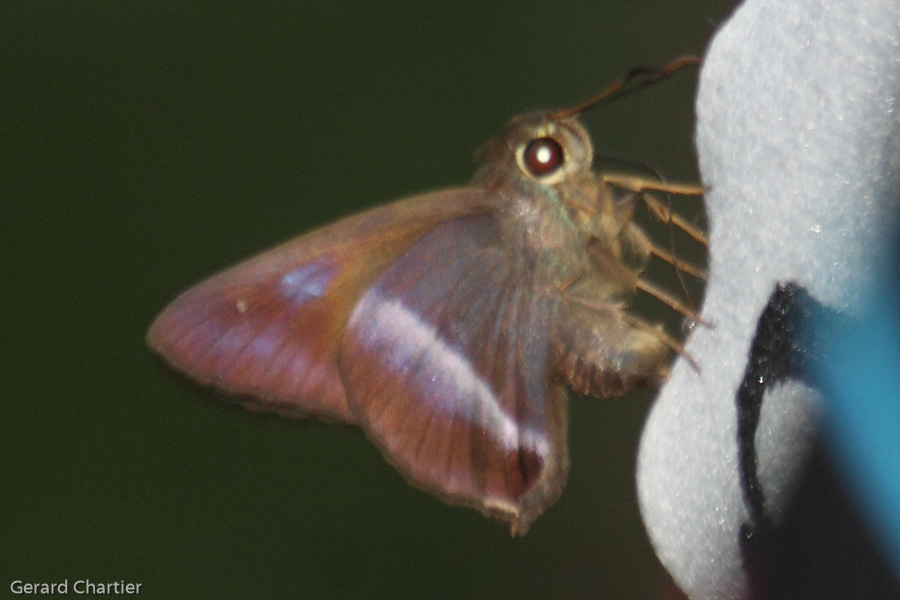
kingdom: Animalia
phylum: Arthropoda
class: Insecta
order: Lepidoptera
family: Hesperiidae
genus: Hasora
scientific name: Hasora vitta
